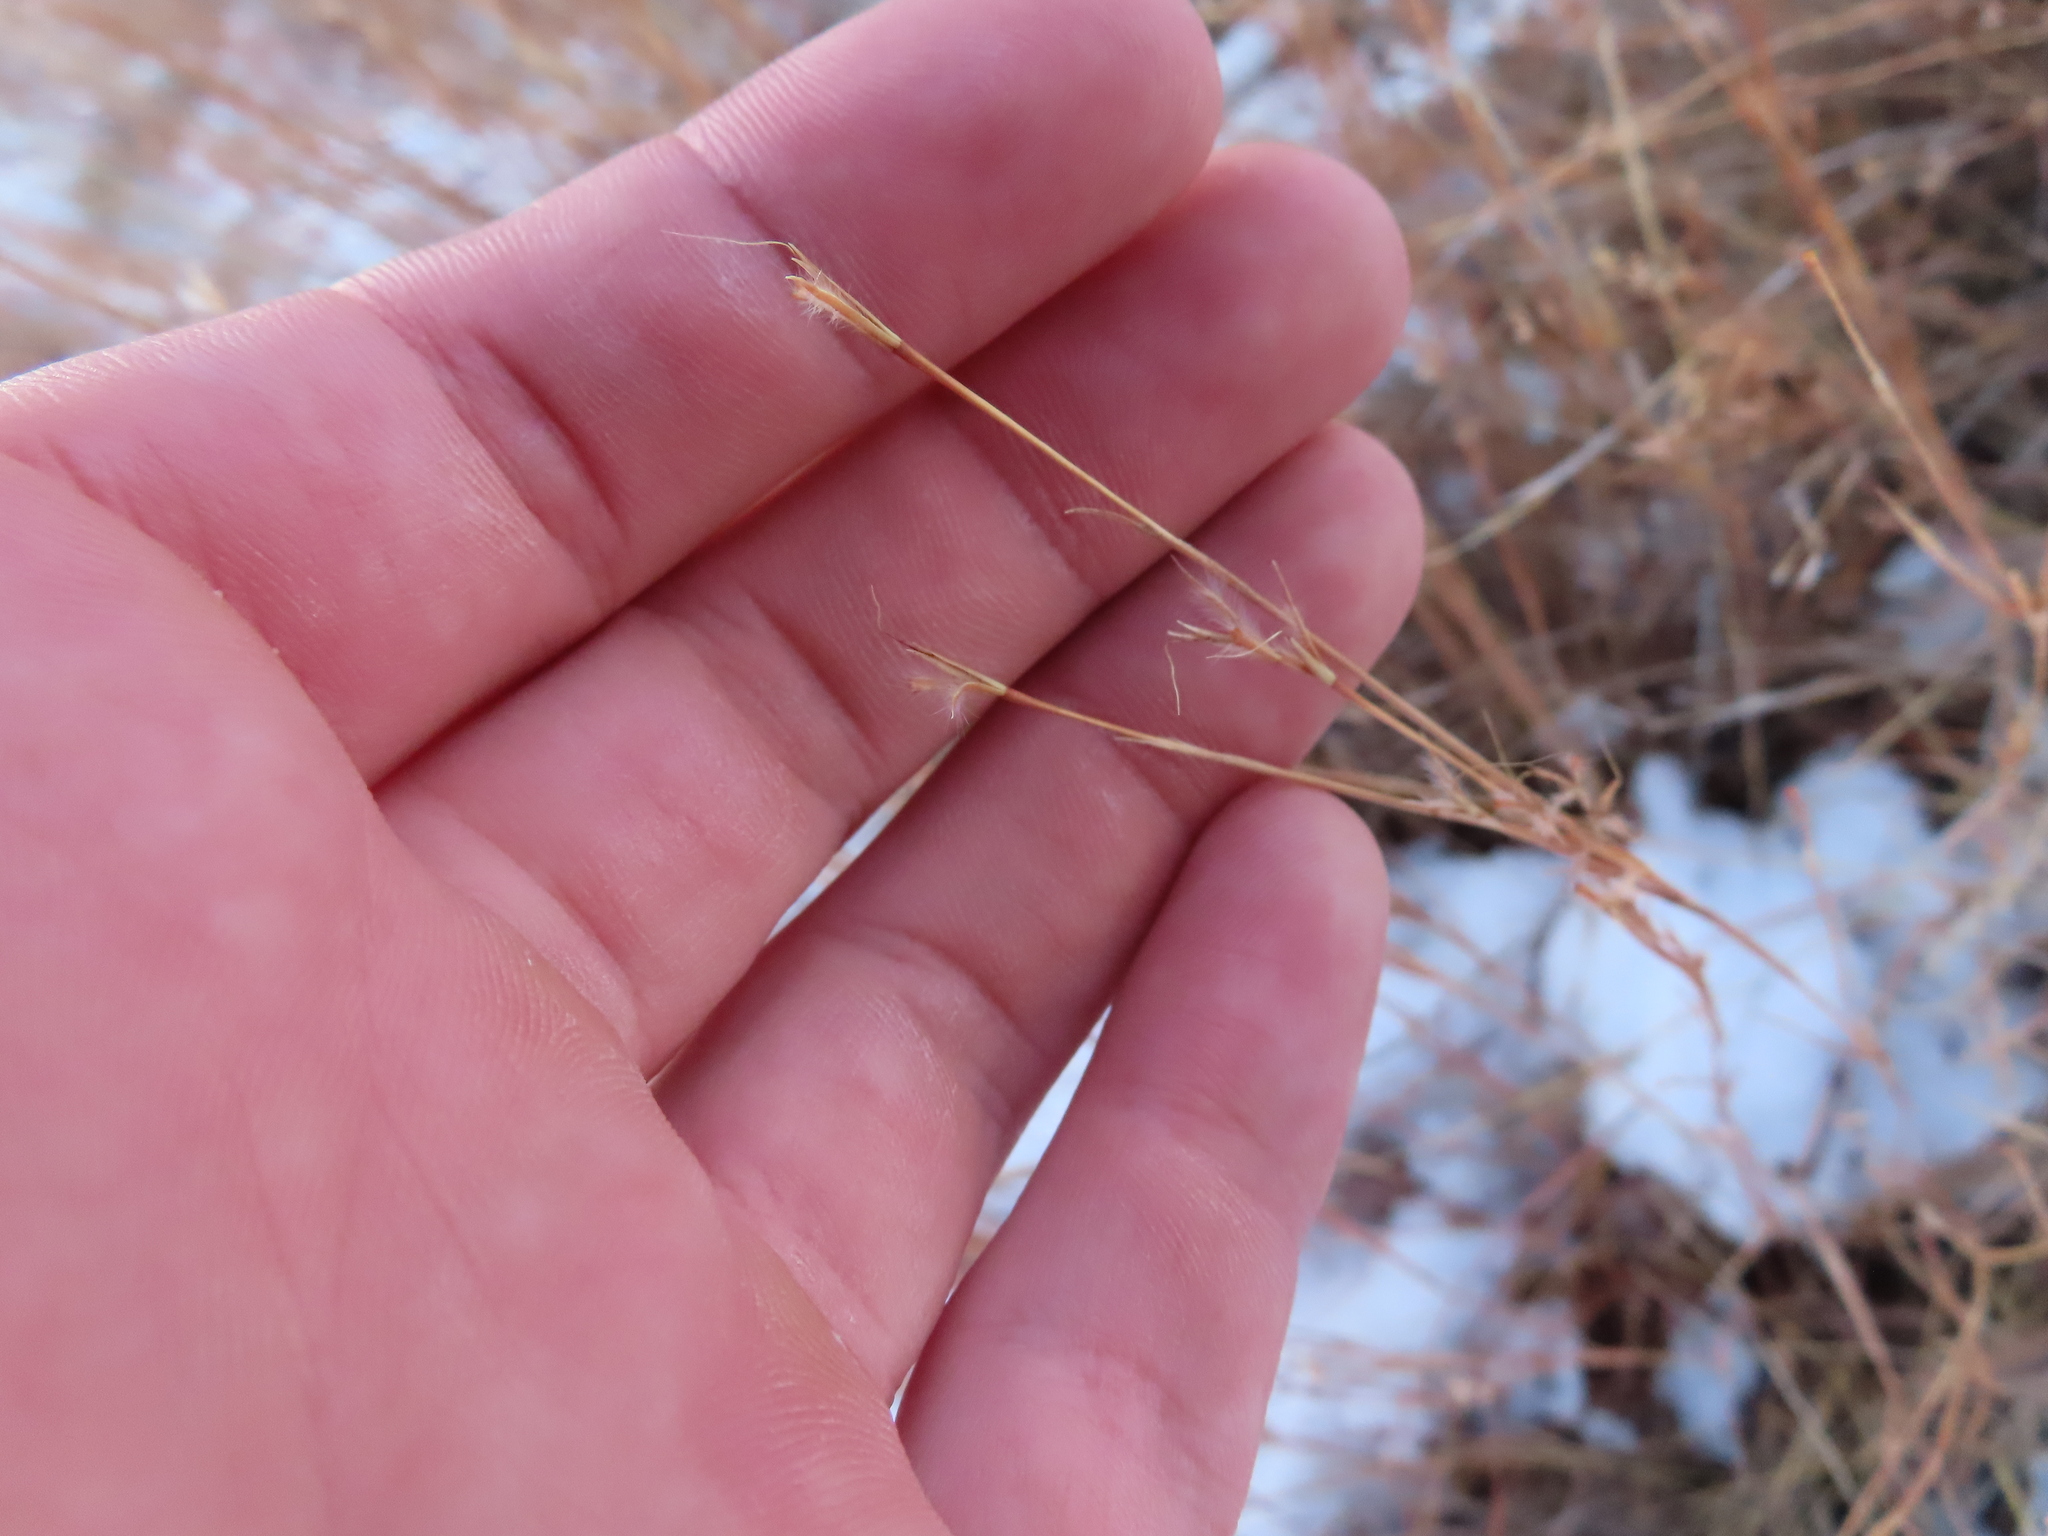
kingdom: Plantae
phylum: Tracheophyta
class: Liliopsida
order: Poales
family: Poaceae
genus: Schizachyrium
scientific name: Schizachyrium scoparium
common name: Little bluestem
